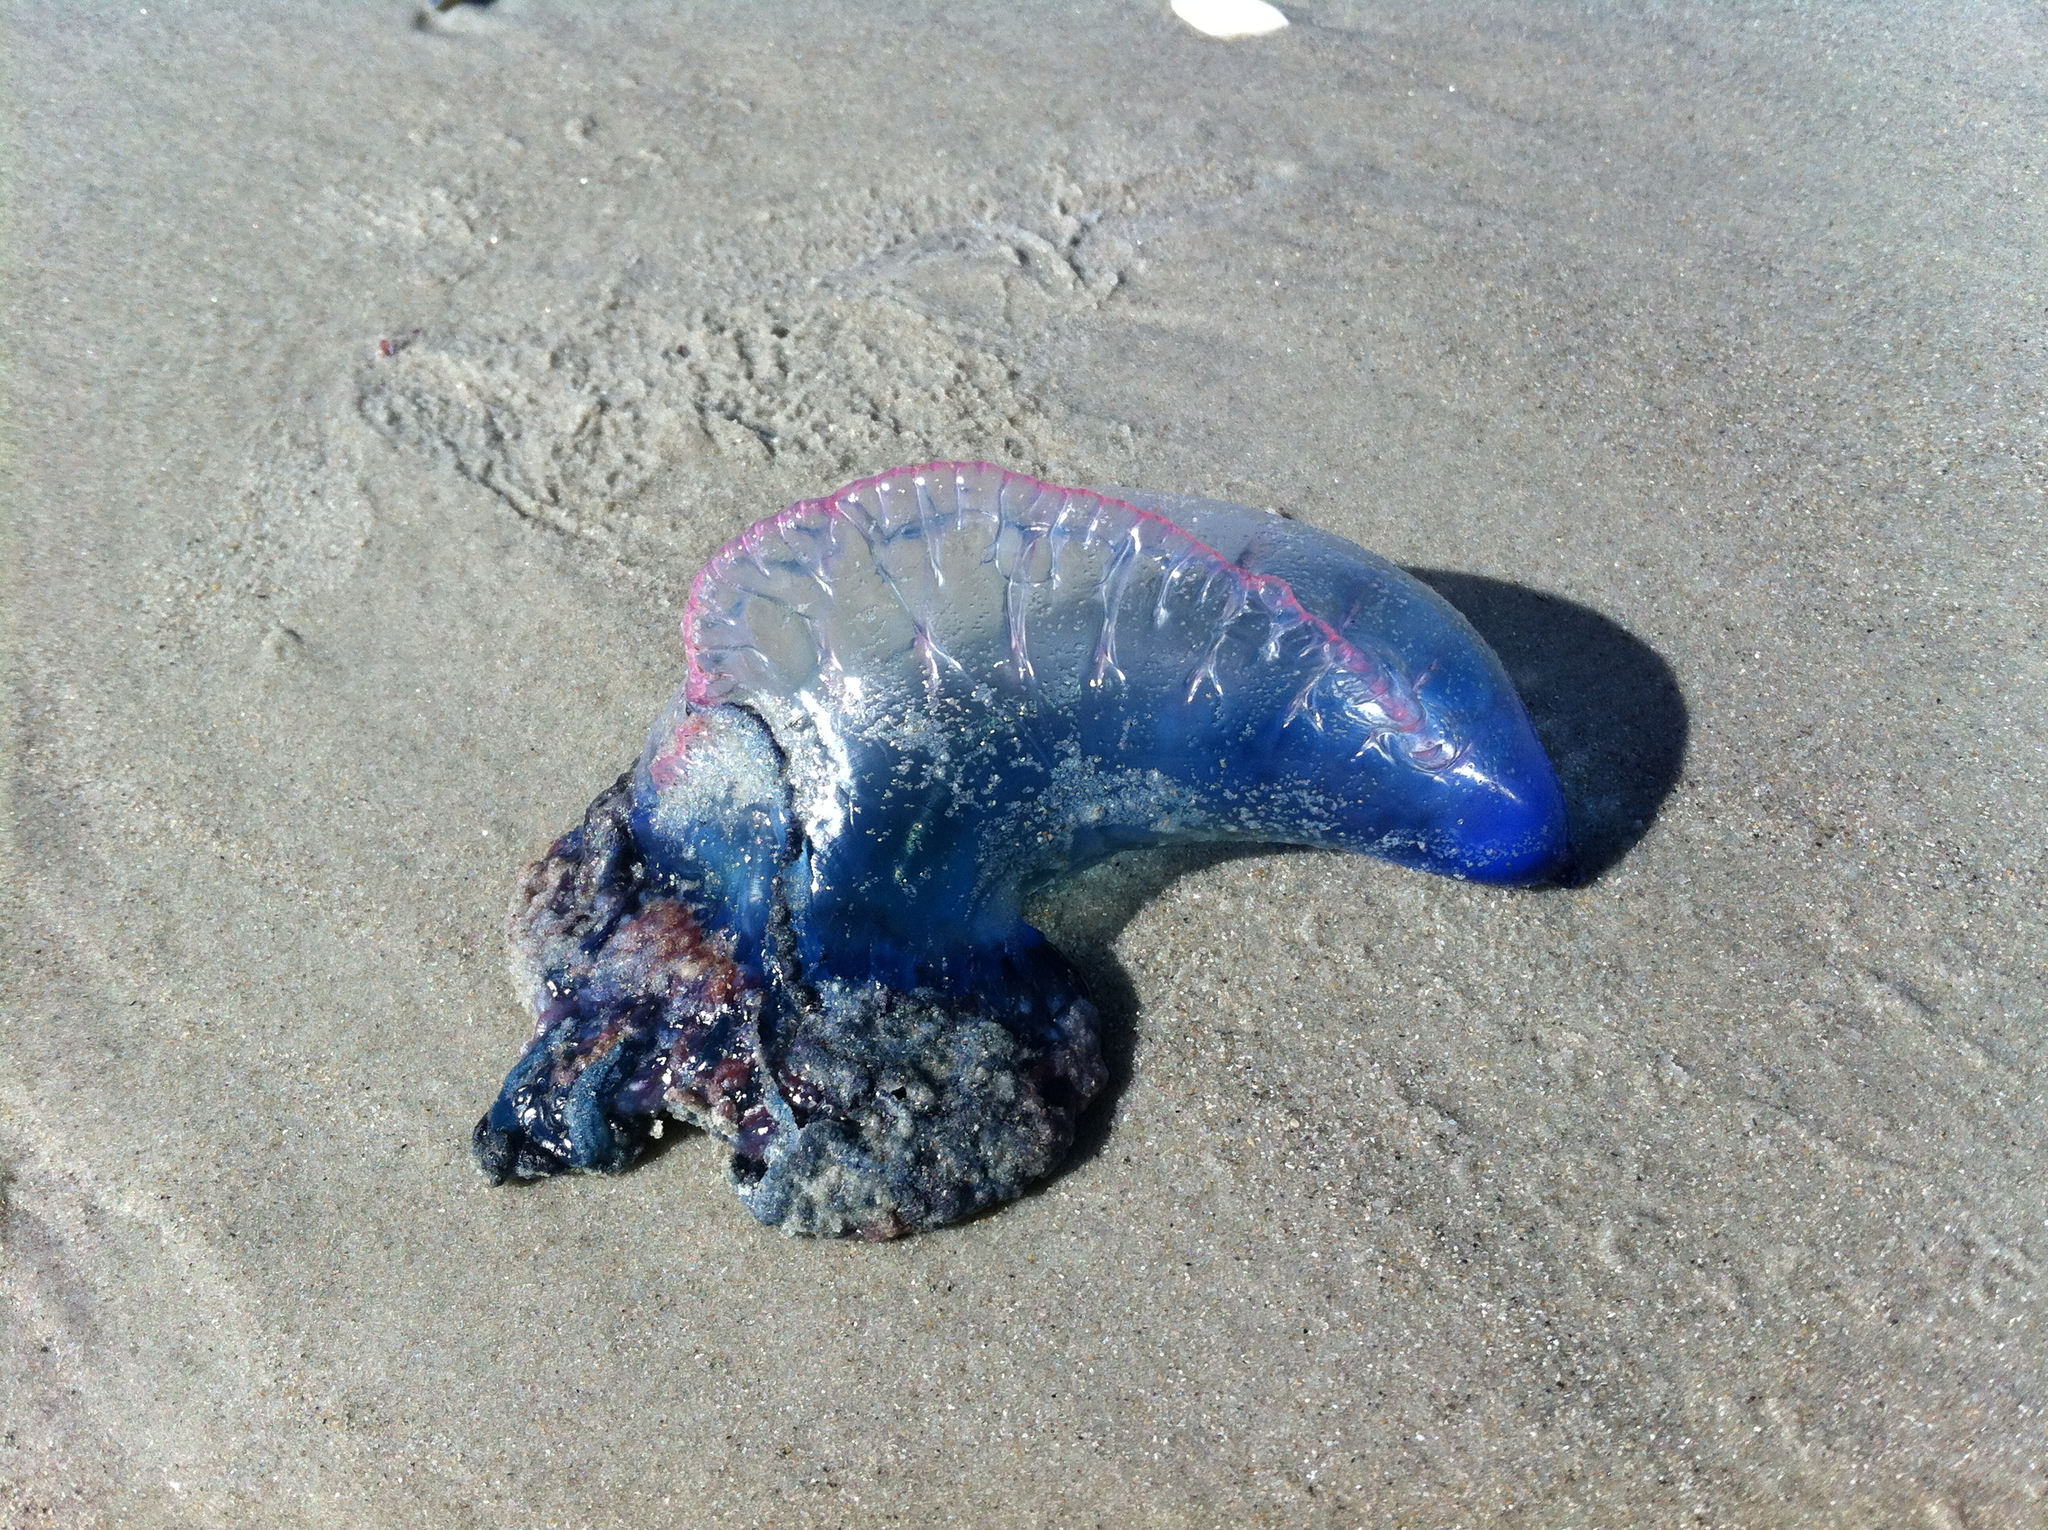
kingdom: Animalia
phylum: Cnidaria
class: Hydrozoa
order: Siphonophorae
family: Physaliidae
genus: Physalia
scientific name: Physalia physalis
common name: Portuguese man-of-war
